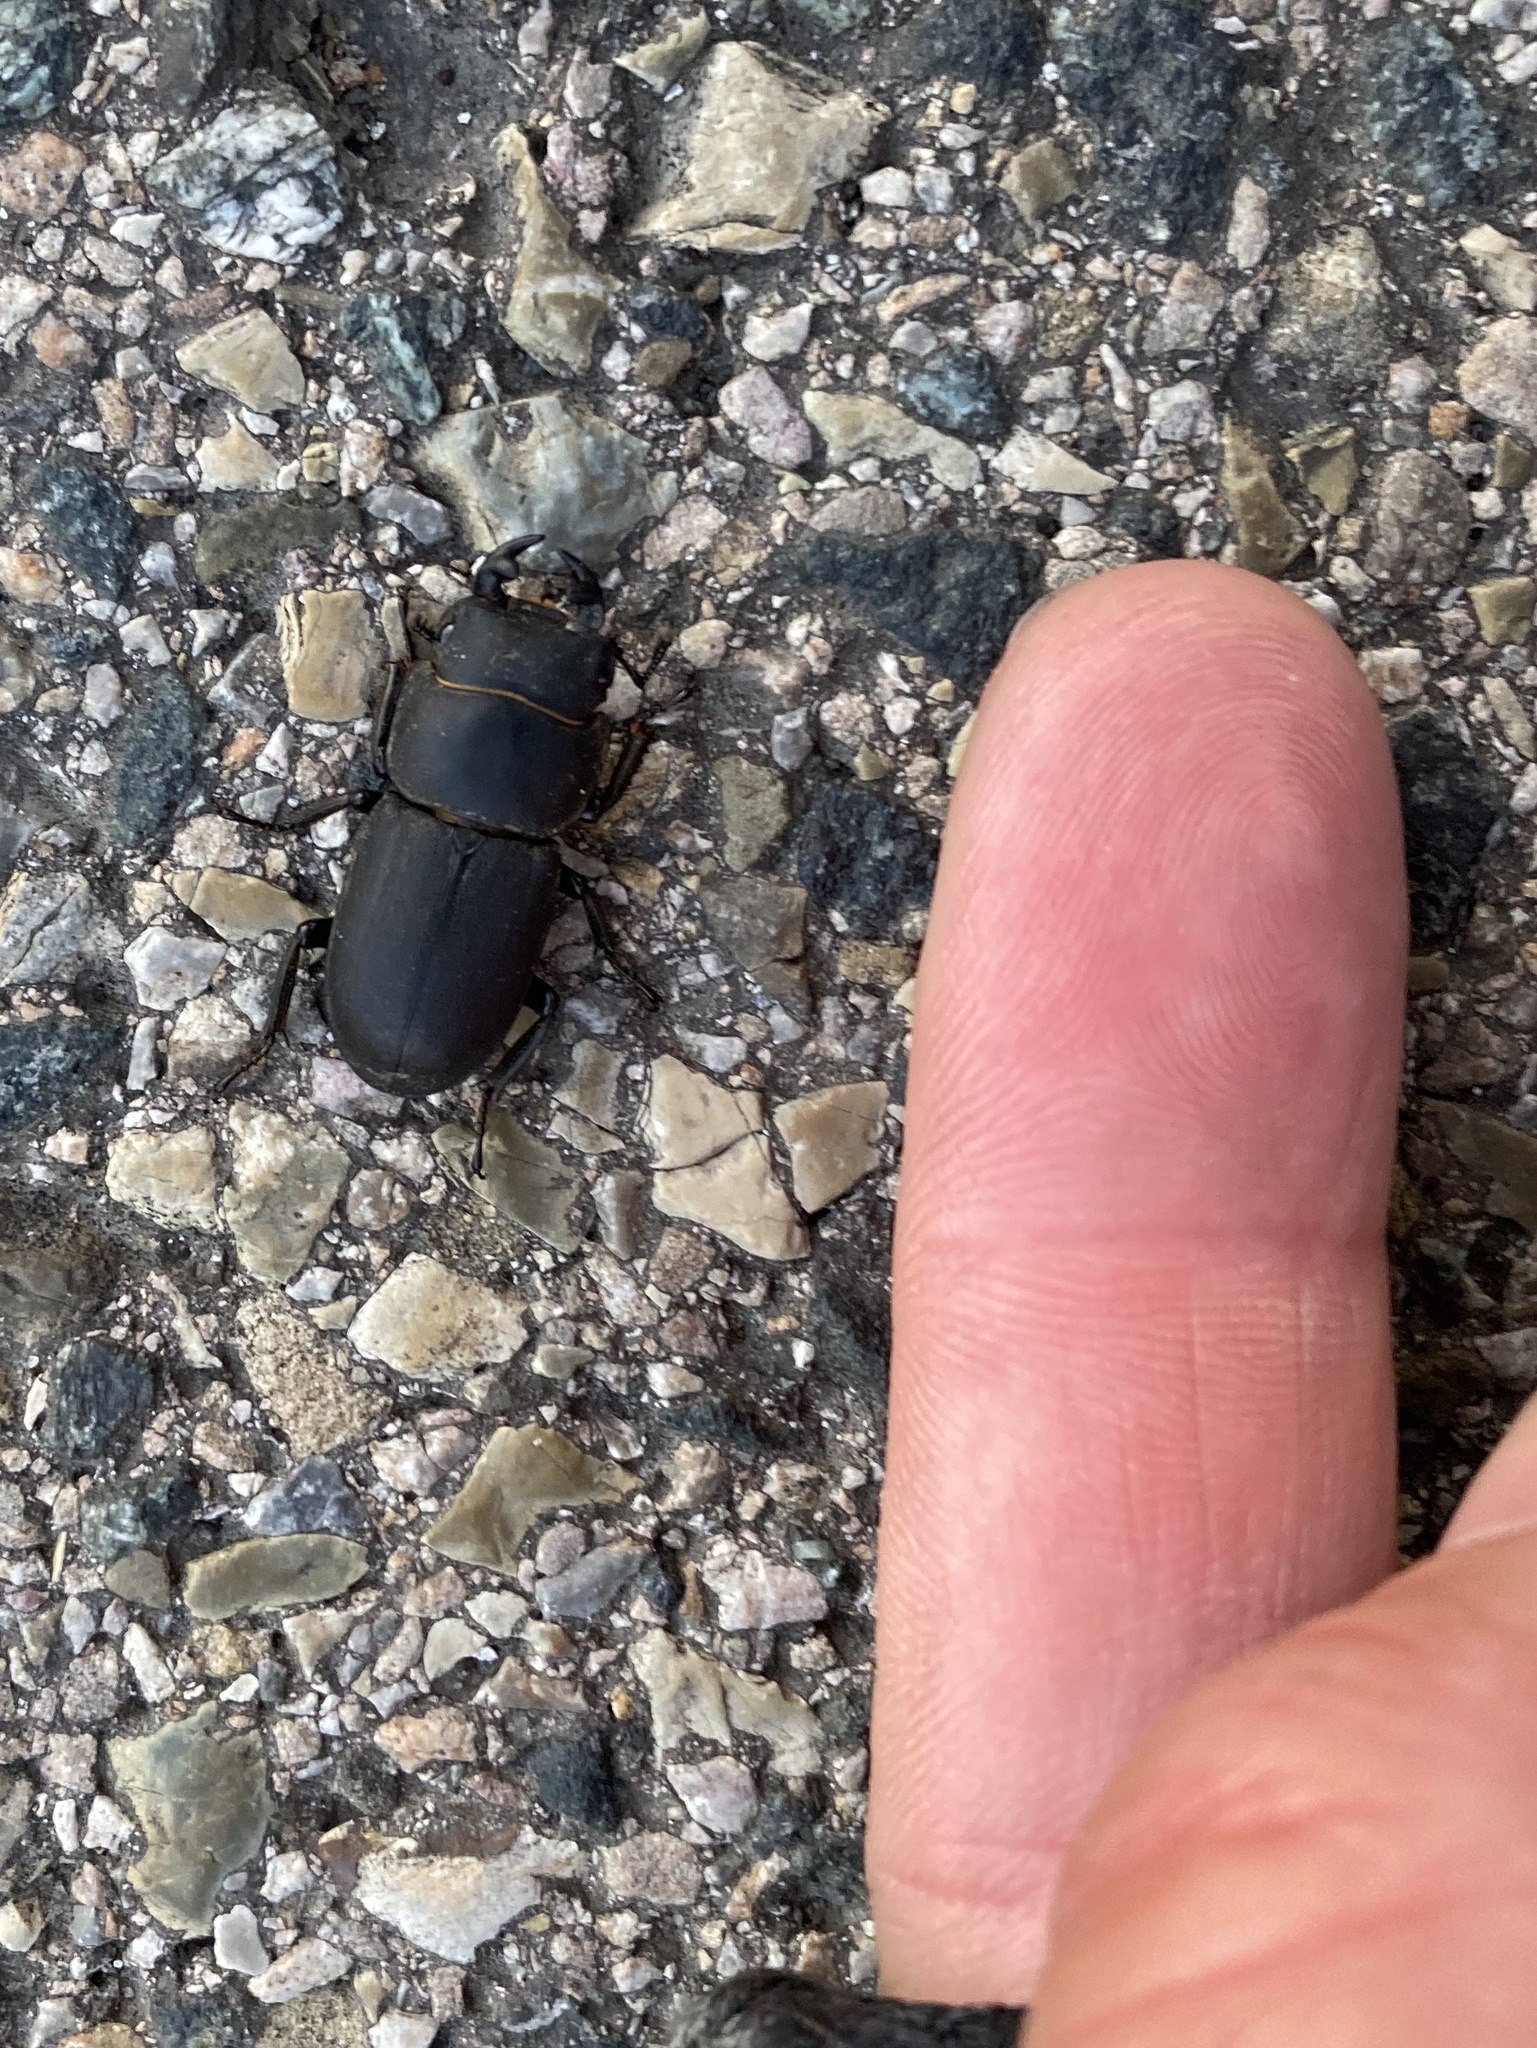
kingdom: Animalia
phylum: Arthropoda
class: Insecta
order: Coleoptera
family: Lucanidae
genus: Dorcus
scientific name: Dorcus parallelipipedus
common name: Lesser stag beetle
